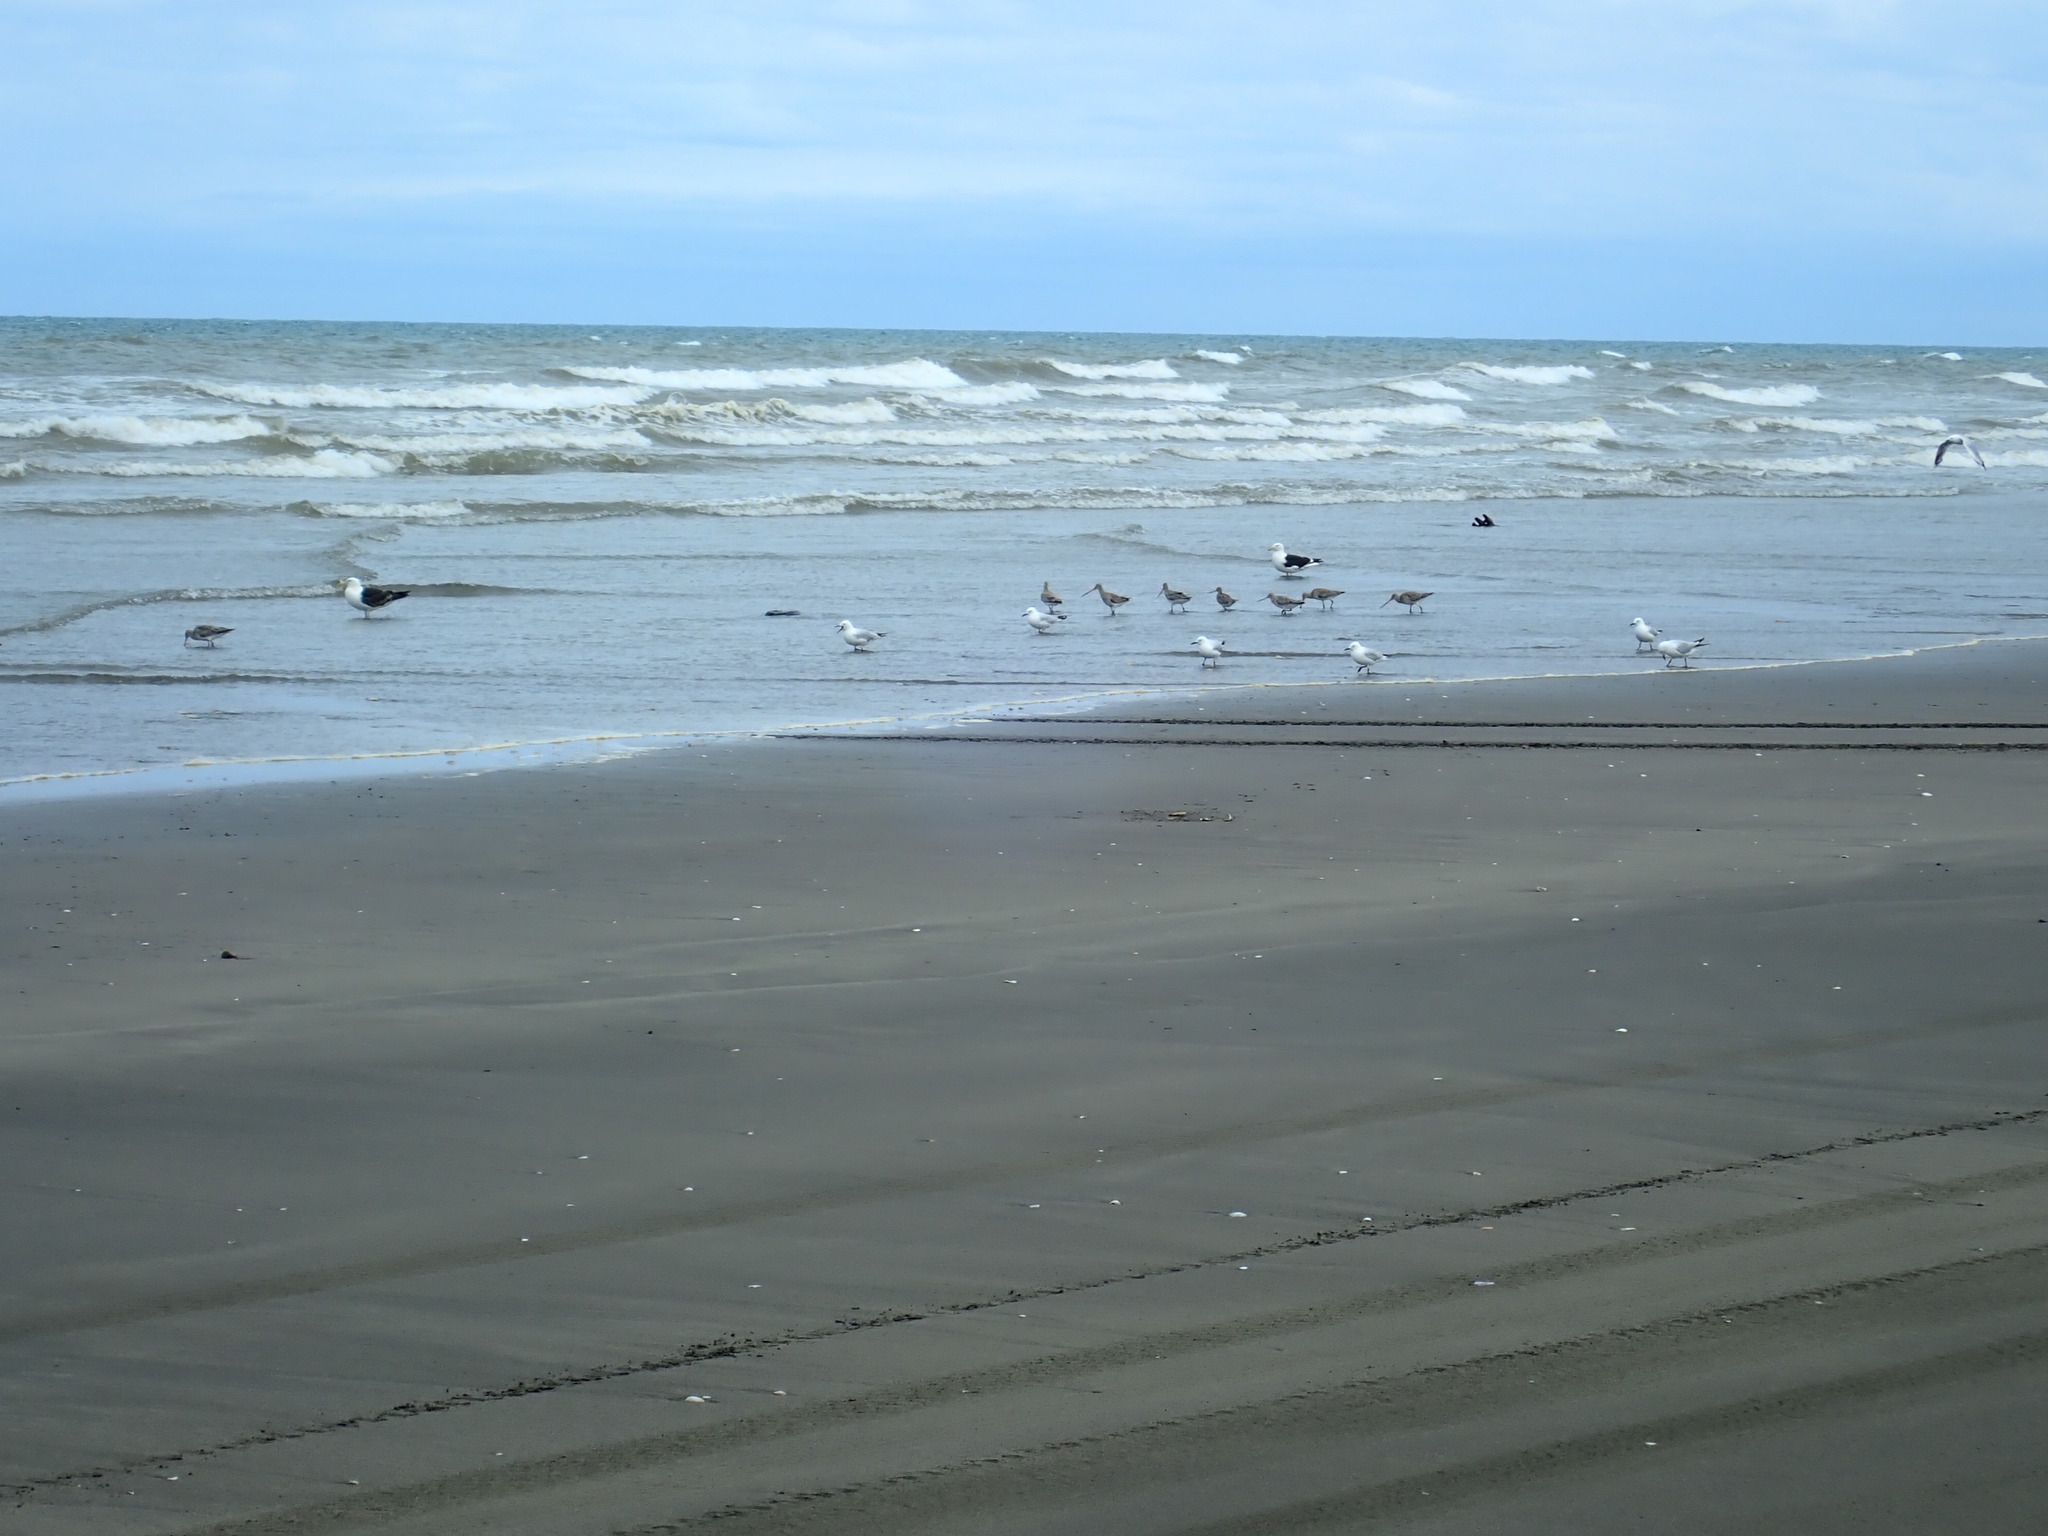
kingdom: Animalia
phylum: Chordata
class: Aves
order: Charadriiformes
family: Scolopacidae
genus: Limosa
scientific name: Limosa lapponica
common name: Bar-tailed godwit
